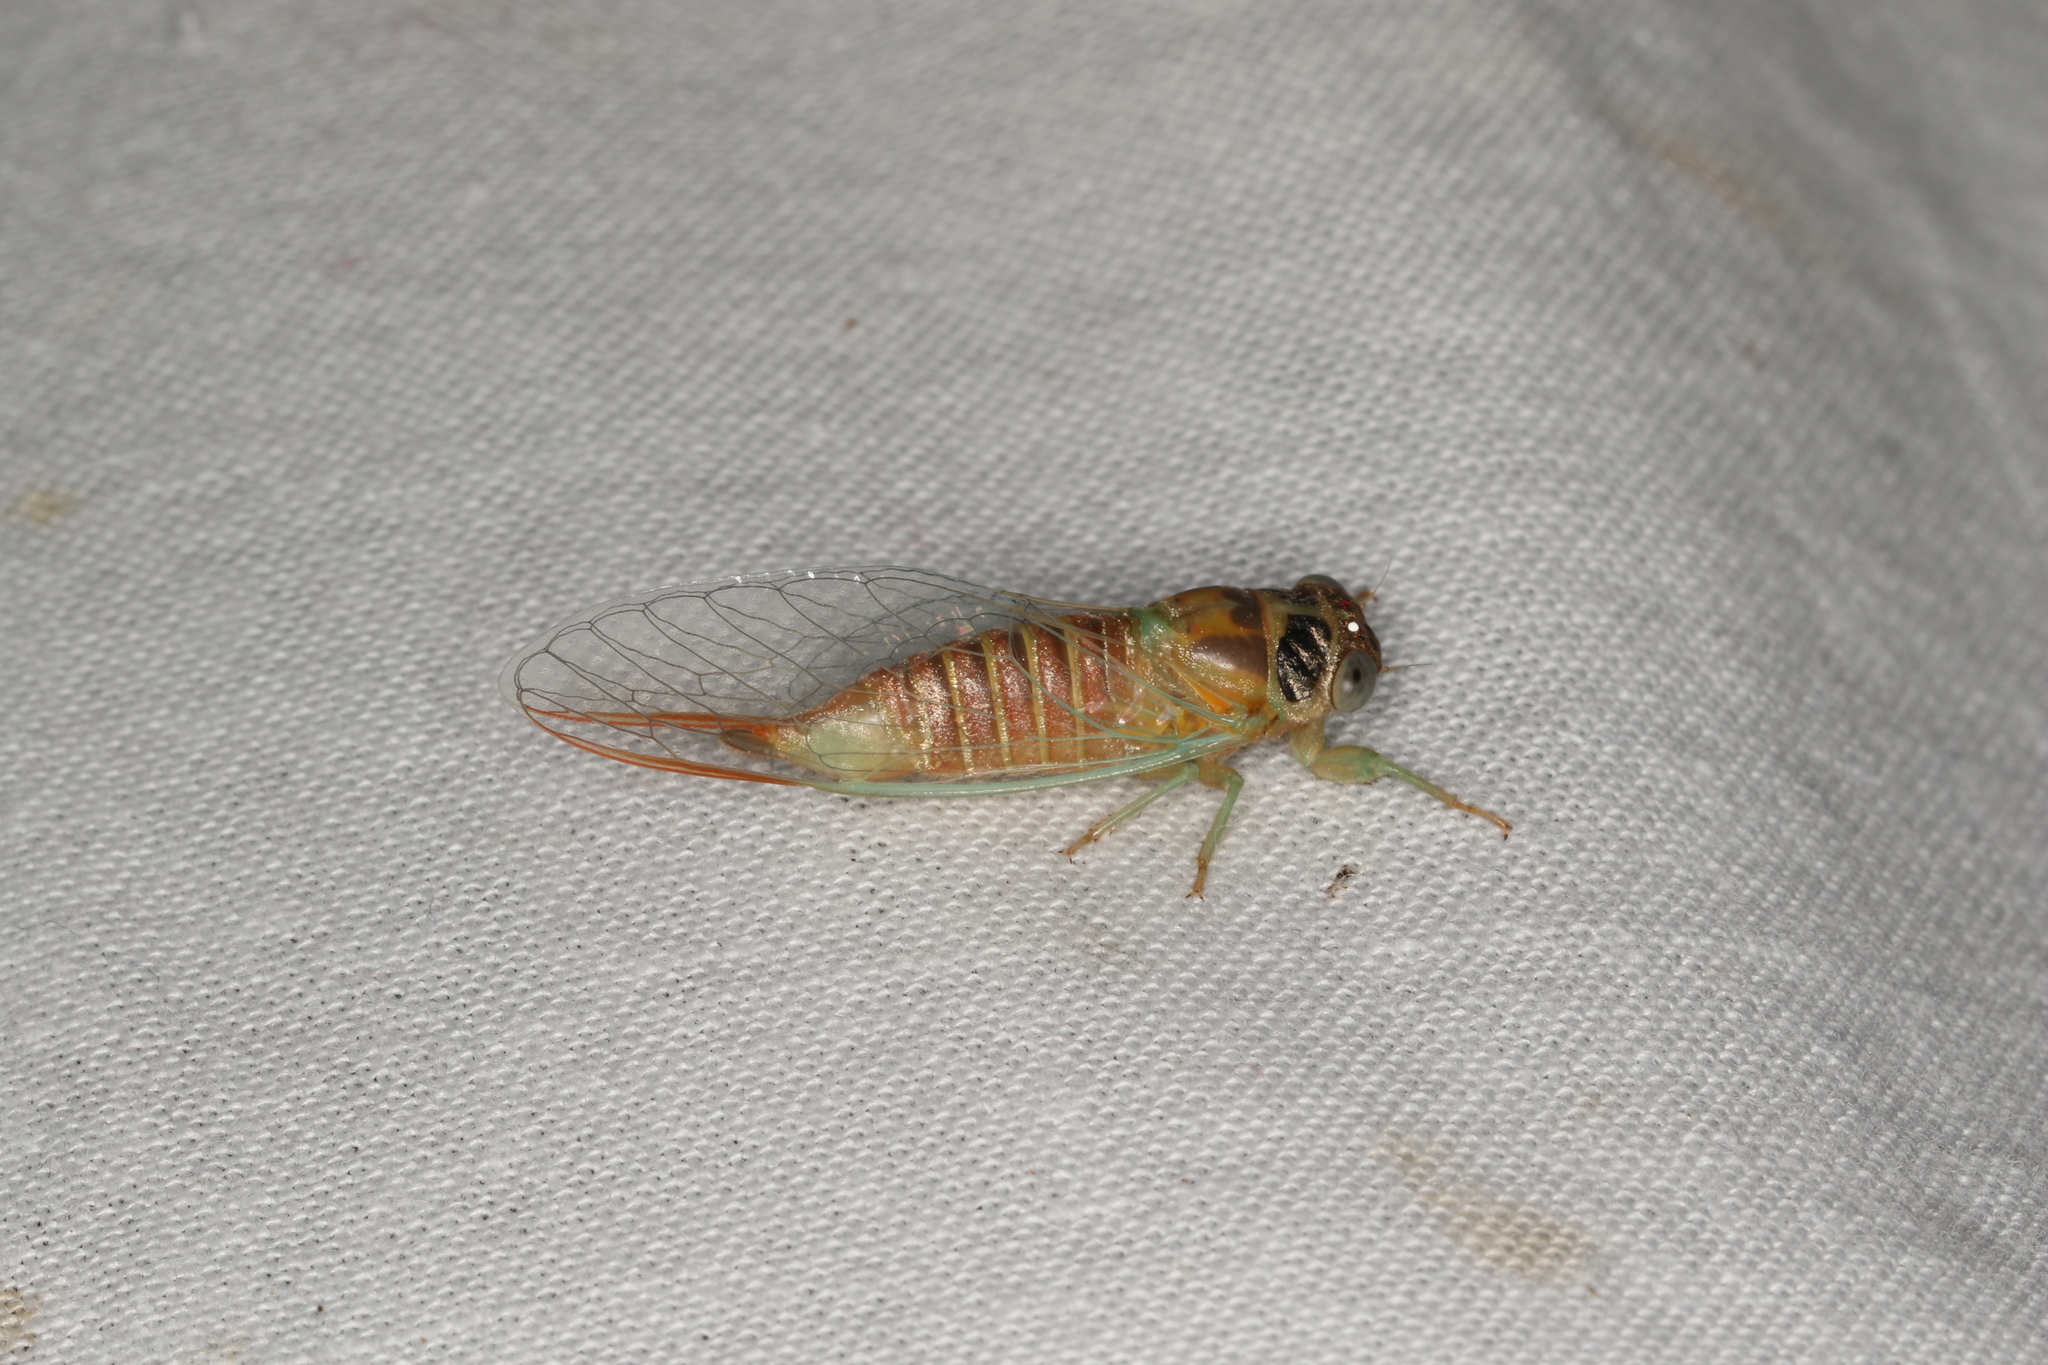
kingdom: Animalia
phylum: Arthropoda
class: Insecta
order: Hemiptera
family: Cicadidae
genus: Palapsalta
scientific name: Palapsalta eyrei
